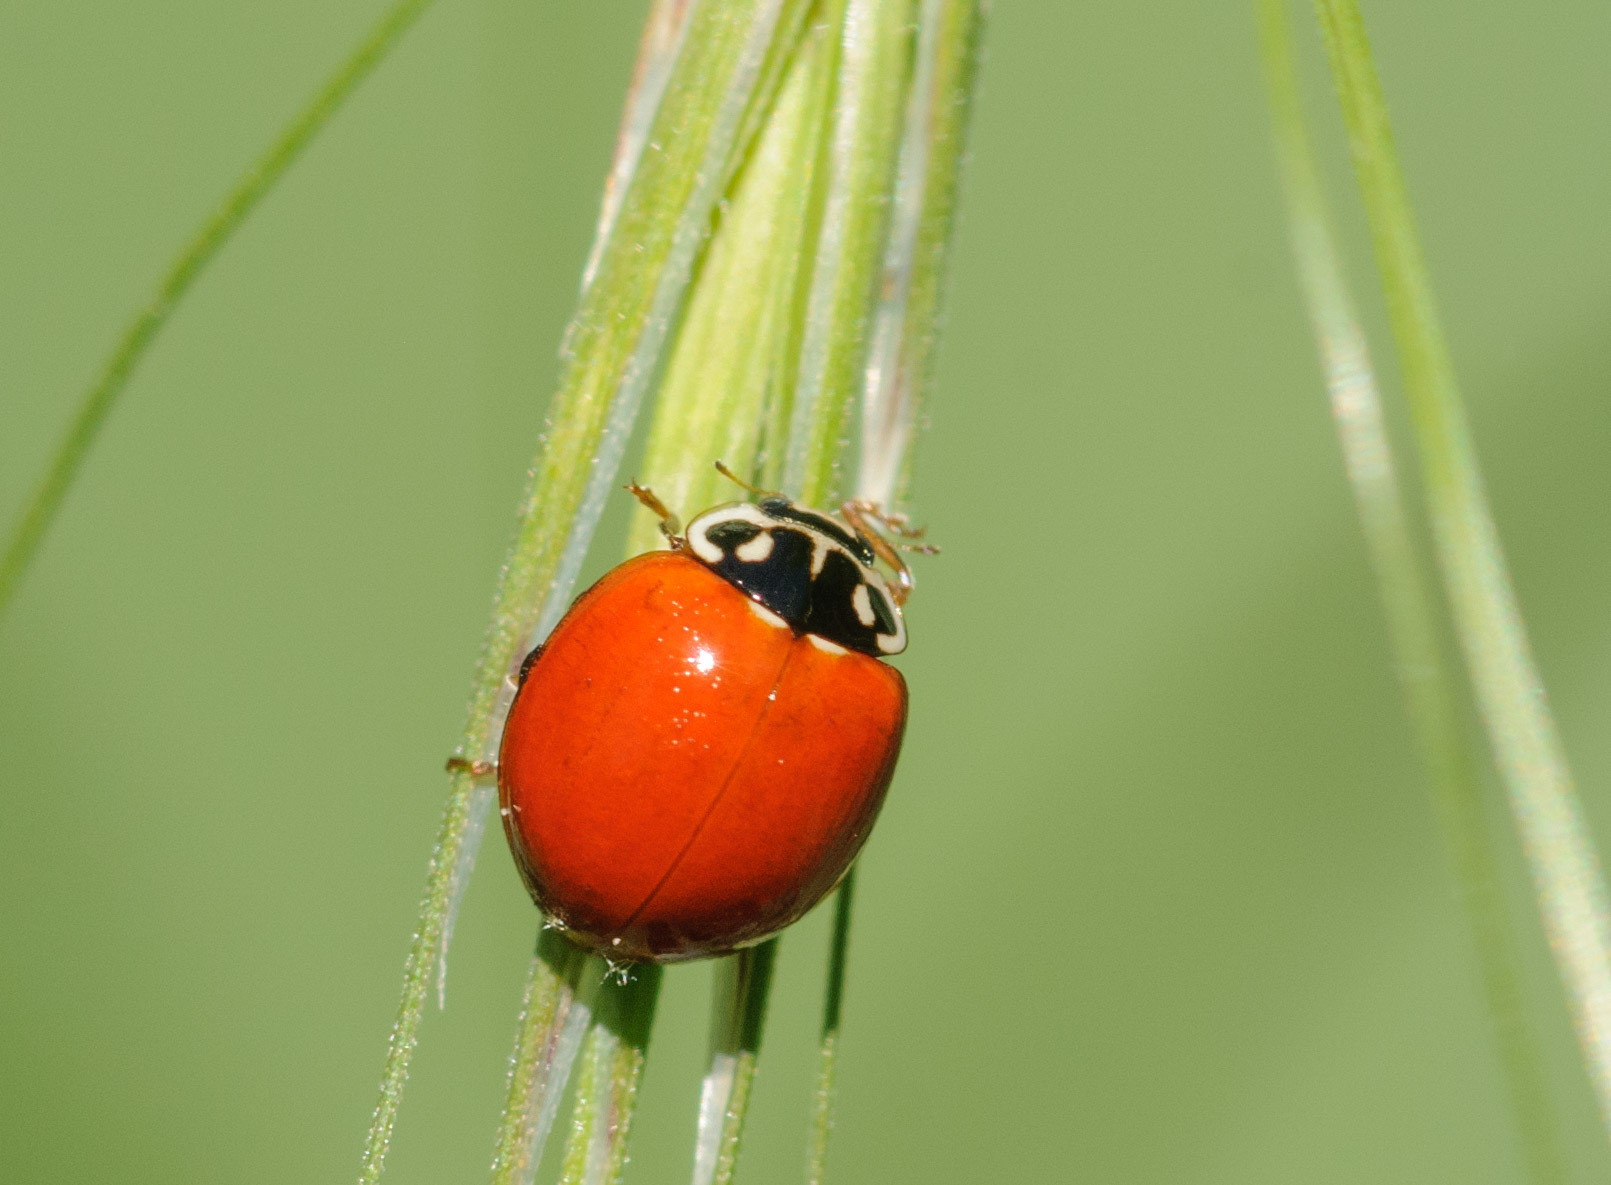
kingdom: Animalia
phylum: Arthropoda
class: Insecta
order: Coleoptera
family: Coccinellidae
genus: Cycloneda
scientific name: Cycloneda sanguinea
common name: Ladybird beetle
